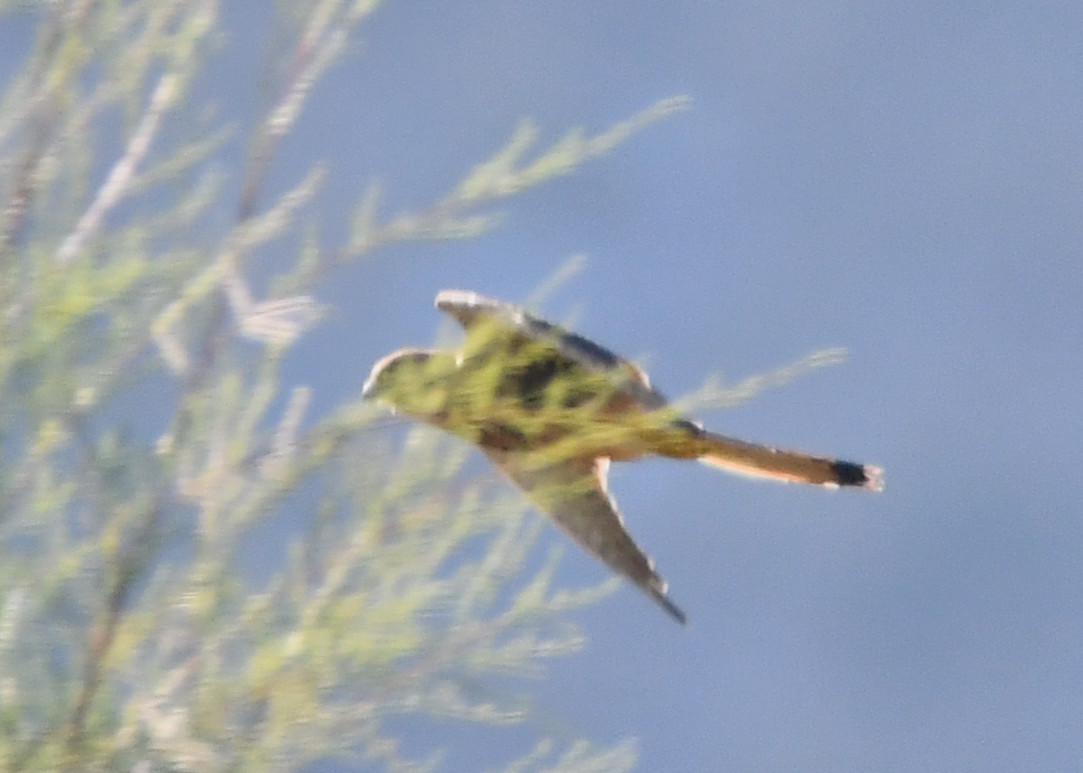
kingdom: Animalia
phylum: Chordata
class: Aves
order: Falconiformes
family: Falconidae
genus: Falco
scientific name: Falco tinnunculus
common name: Common kestrel
